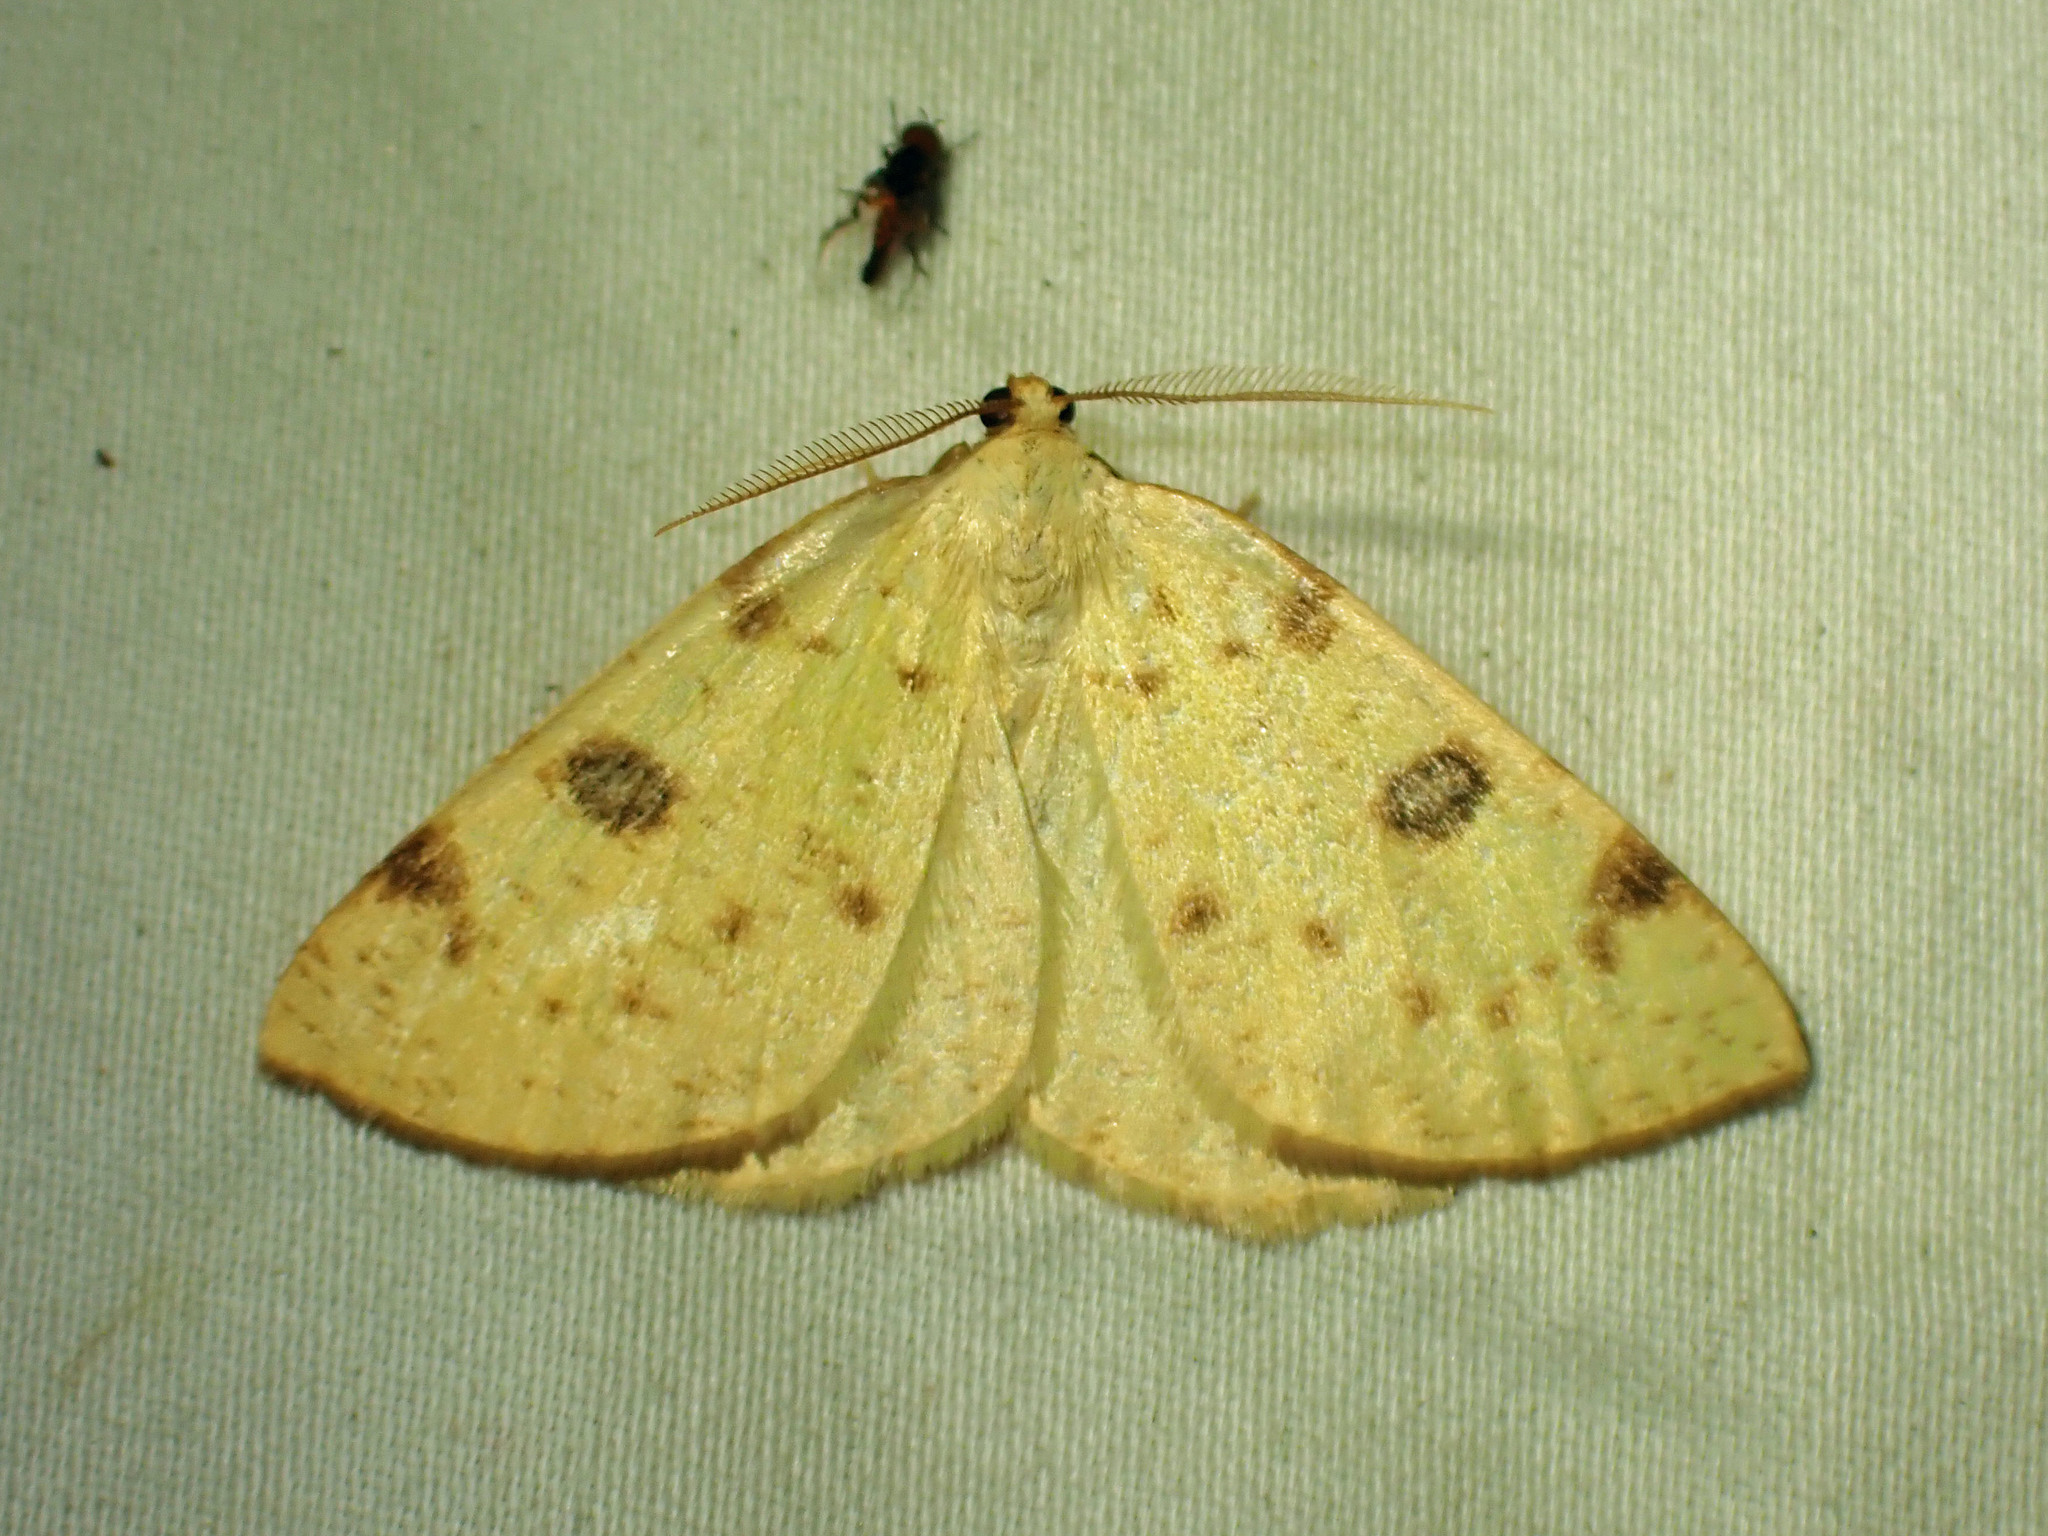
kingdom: Animalia
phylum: Arthropoda
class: Insecta
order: Lepidoptera
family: Geometridae
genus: Hesperumia
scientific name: Hesperumia sulphuraria
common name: Sulphur moth
